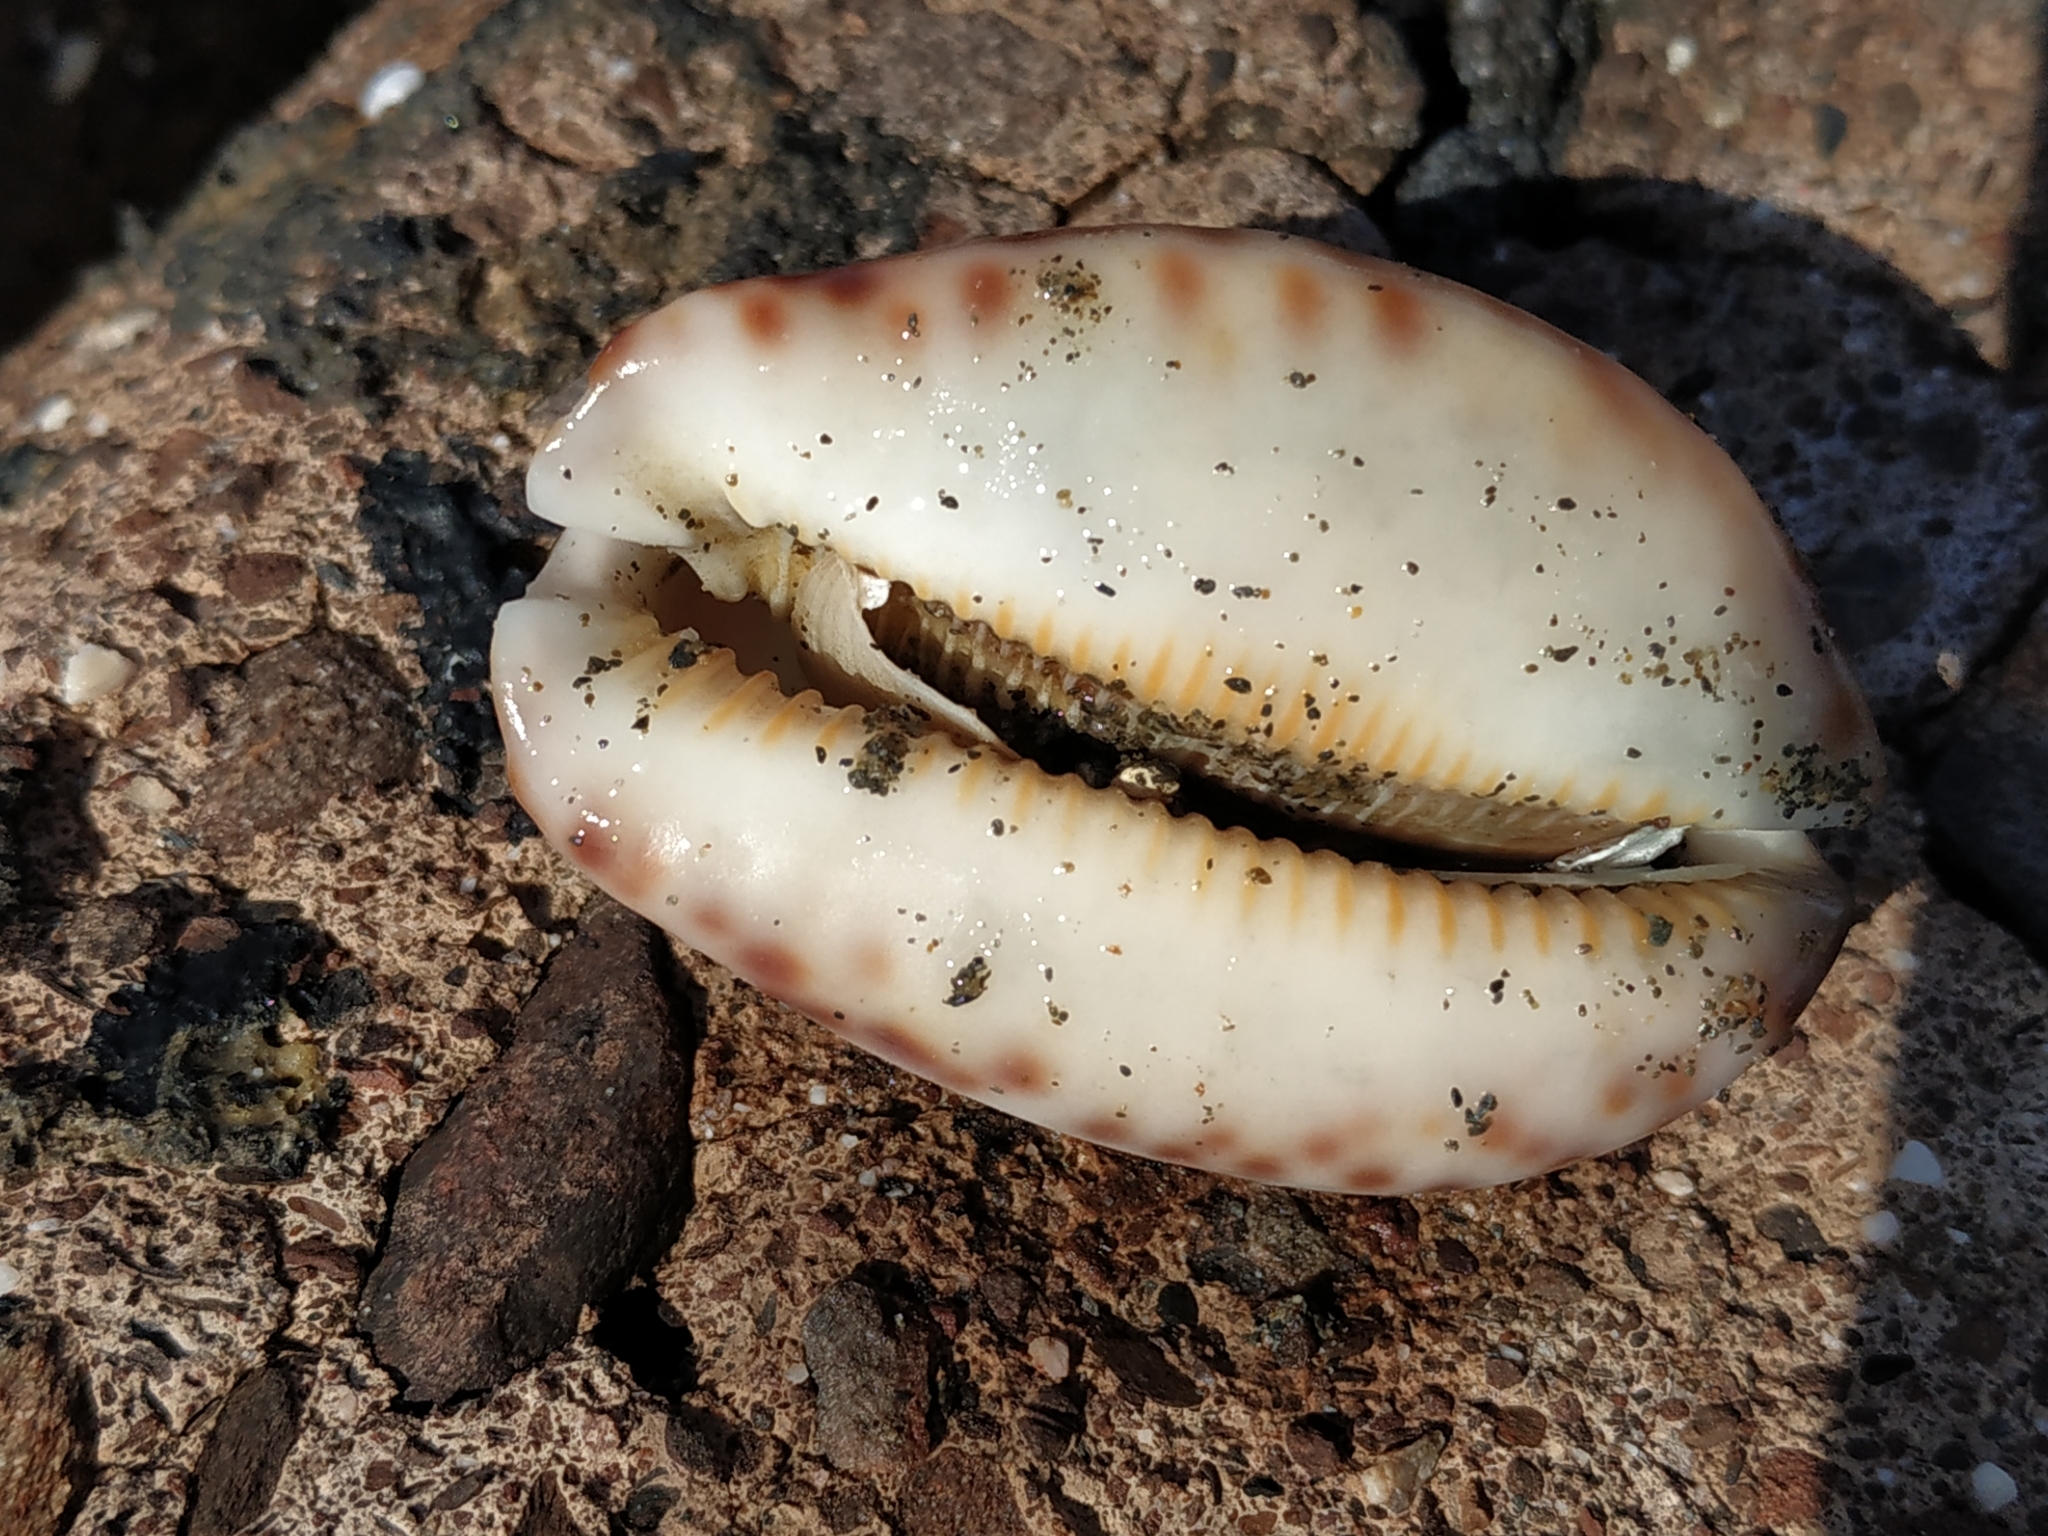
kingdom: Animalia
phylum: Mollusca
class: Gastropoda
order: Littorinimorpha
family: Cypraeidae
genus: Mauritia
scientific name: Mauritia arabica
